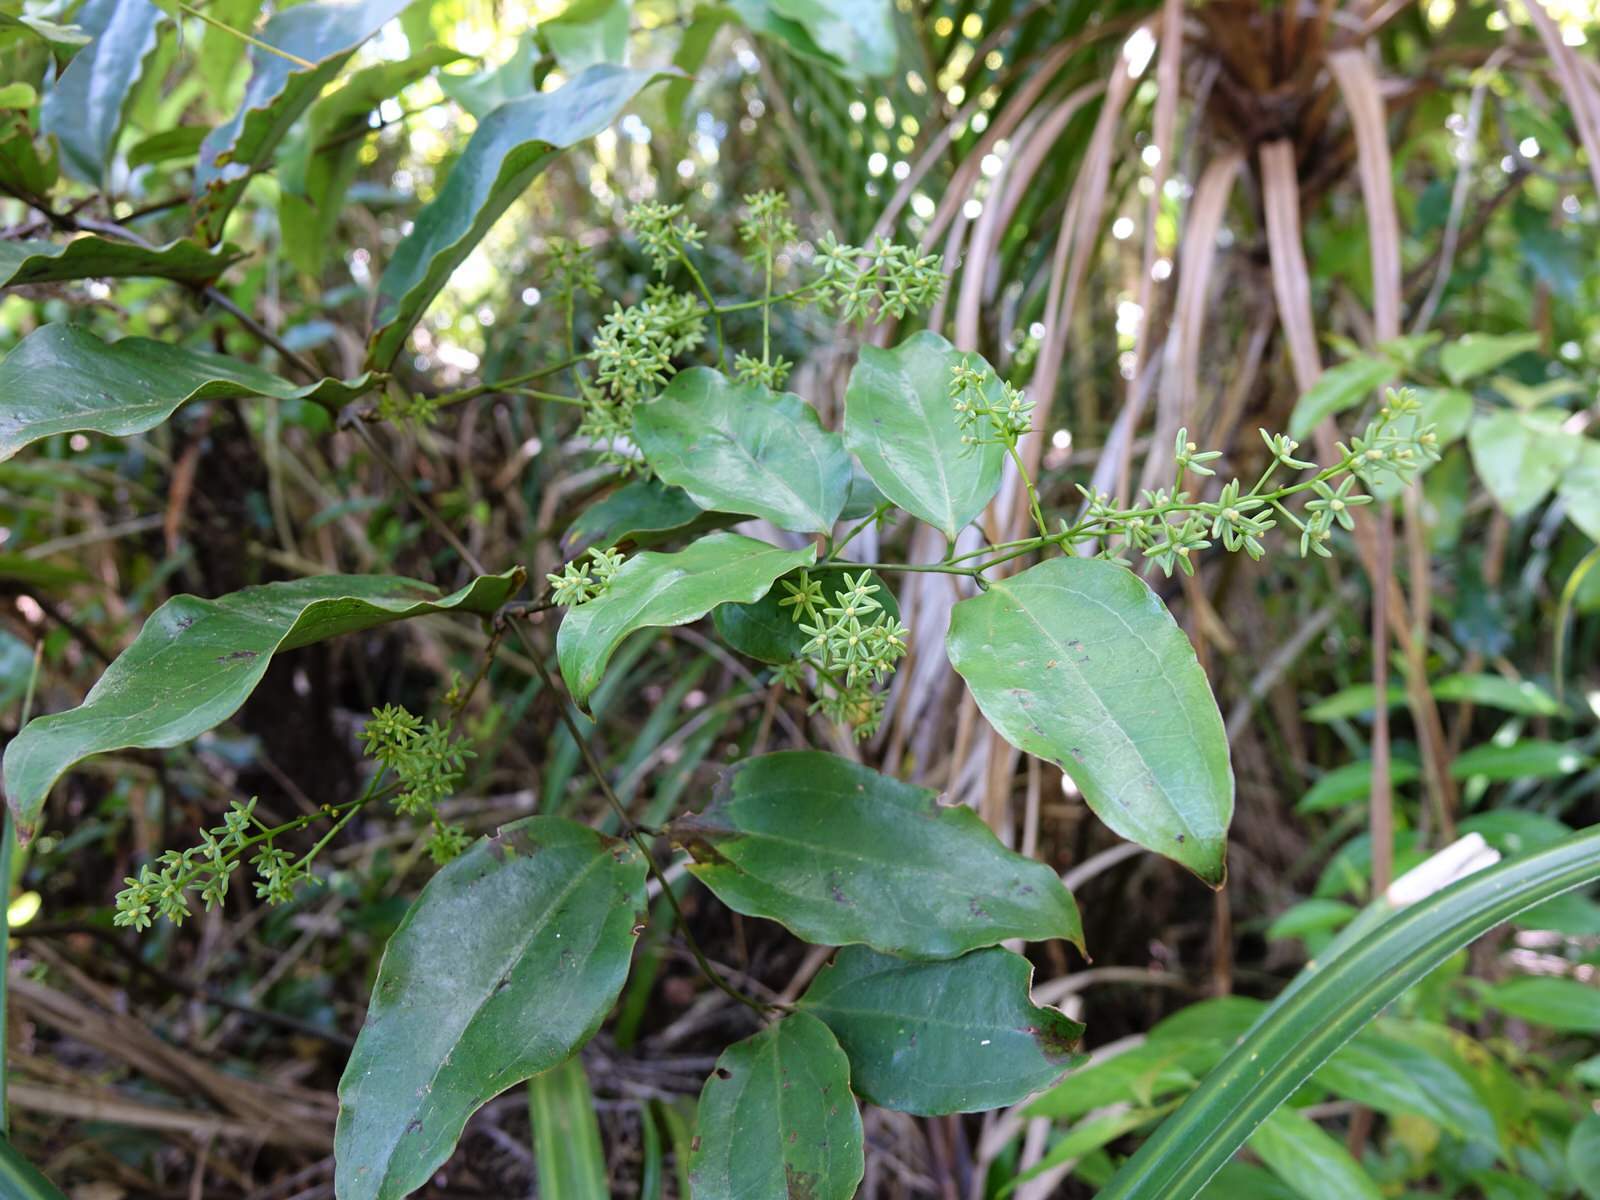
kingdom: Plantae
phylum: Tracheophyta
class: Liliopsida
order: Liliales
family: Ripogonaceae
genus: Ripogonum
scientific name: Ripogonum scandens
